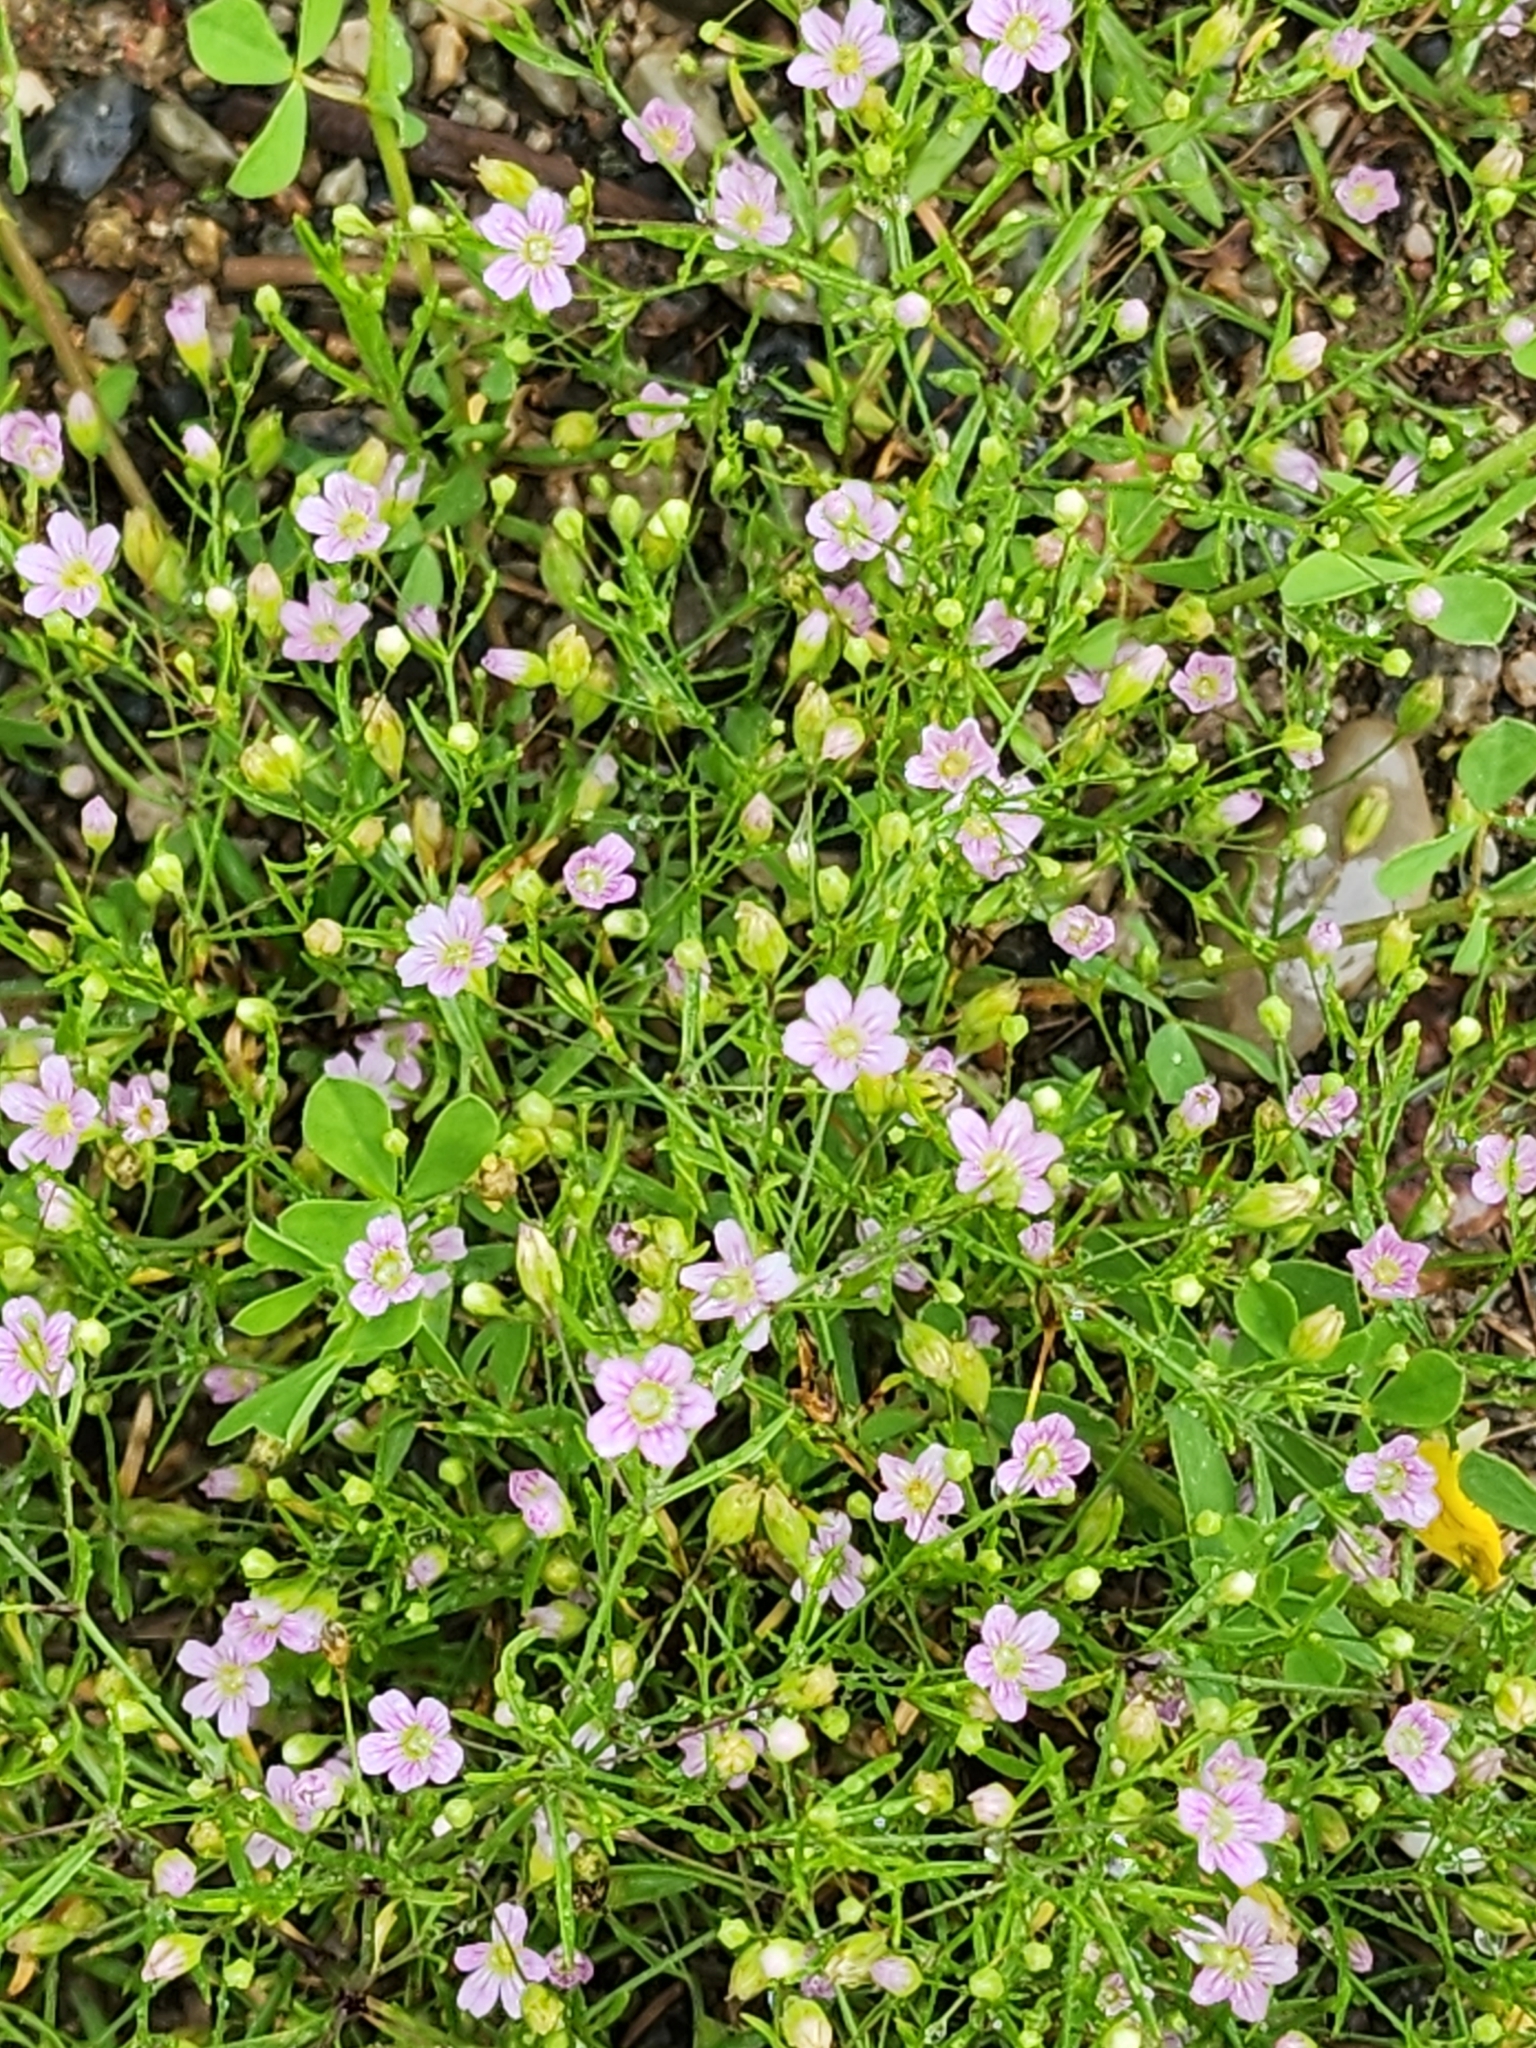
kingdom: Plantae
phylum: Tracheophyta
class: Magnoliopsida
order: Caryophyllales
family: Caryophyllaceae
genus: Psammophiliella
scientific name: Psammophiliella muralis
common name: Cushion baby's-breath
